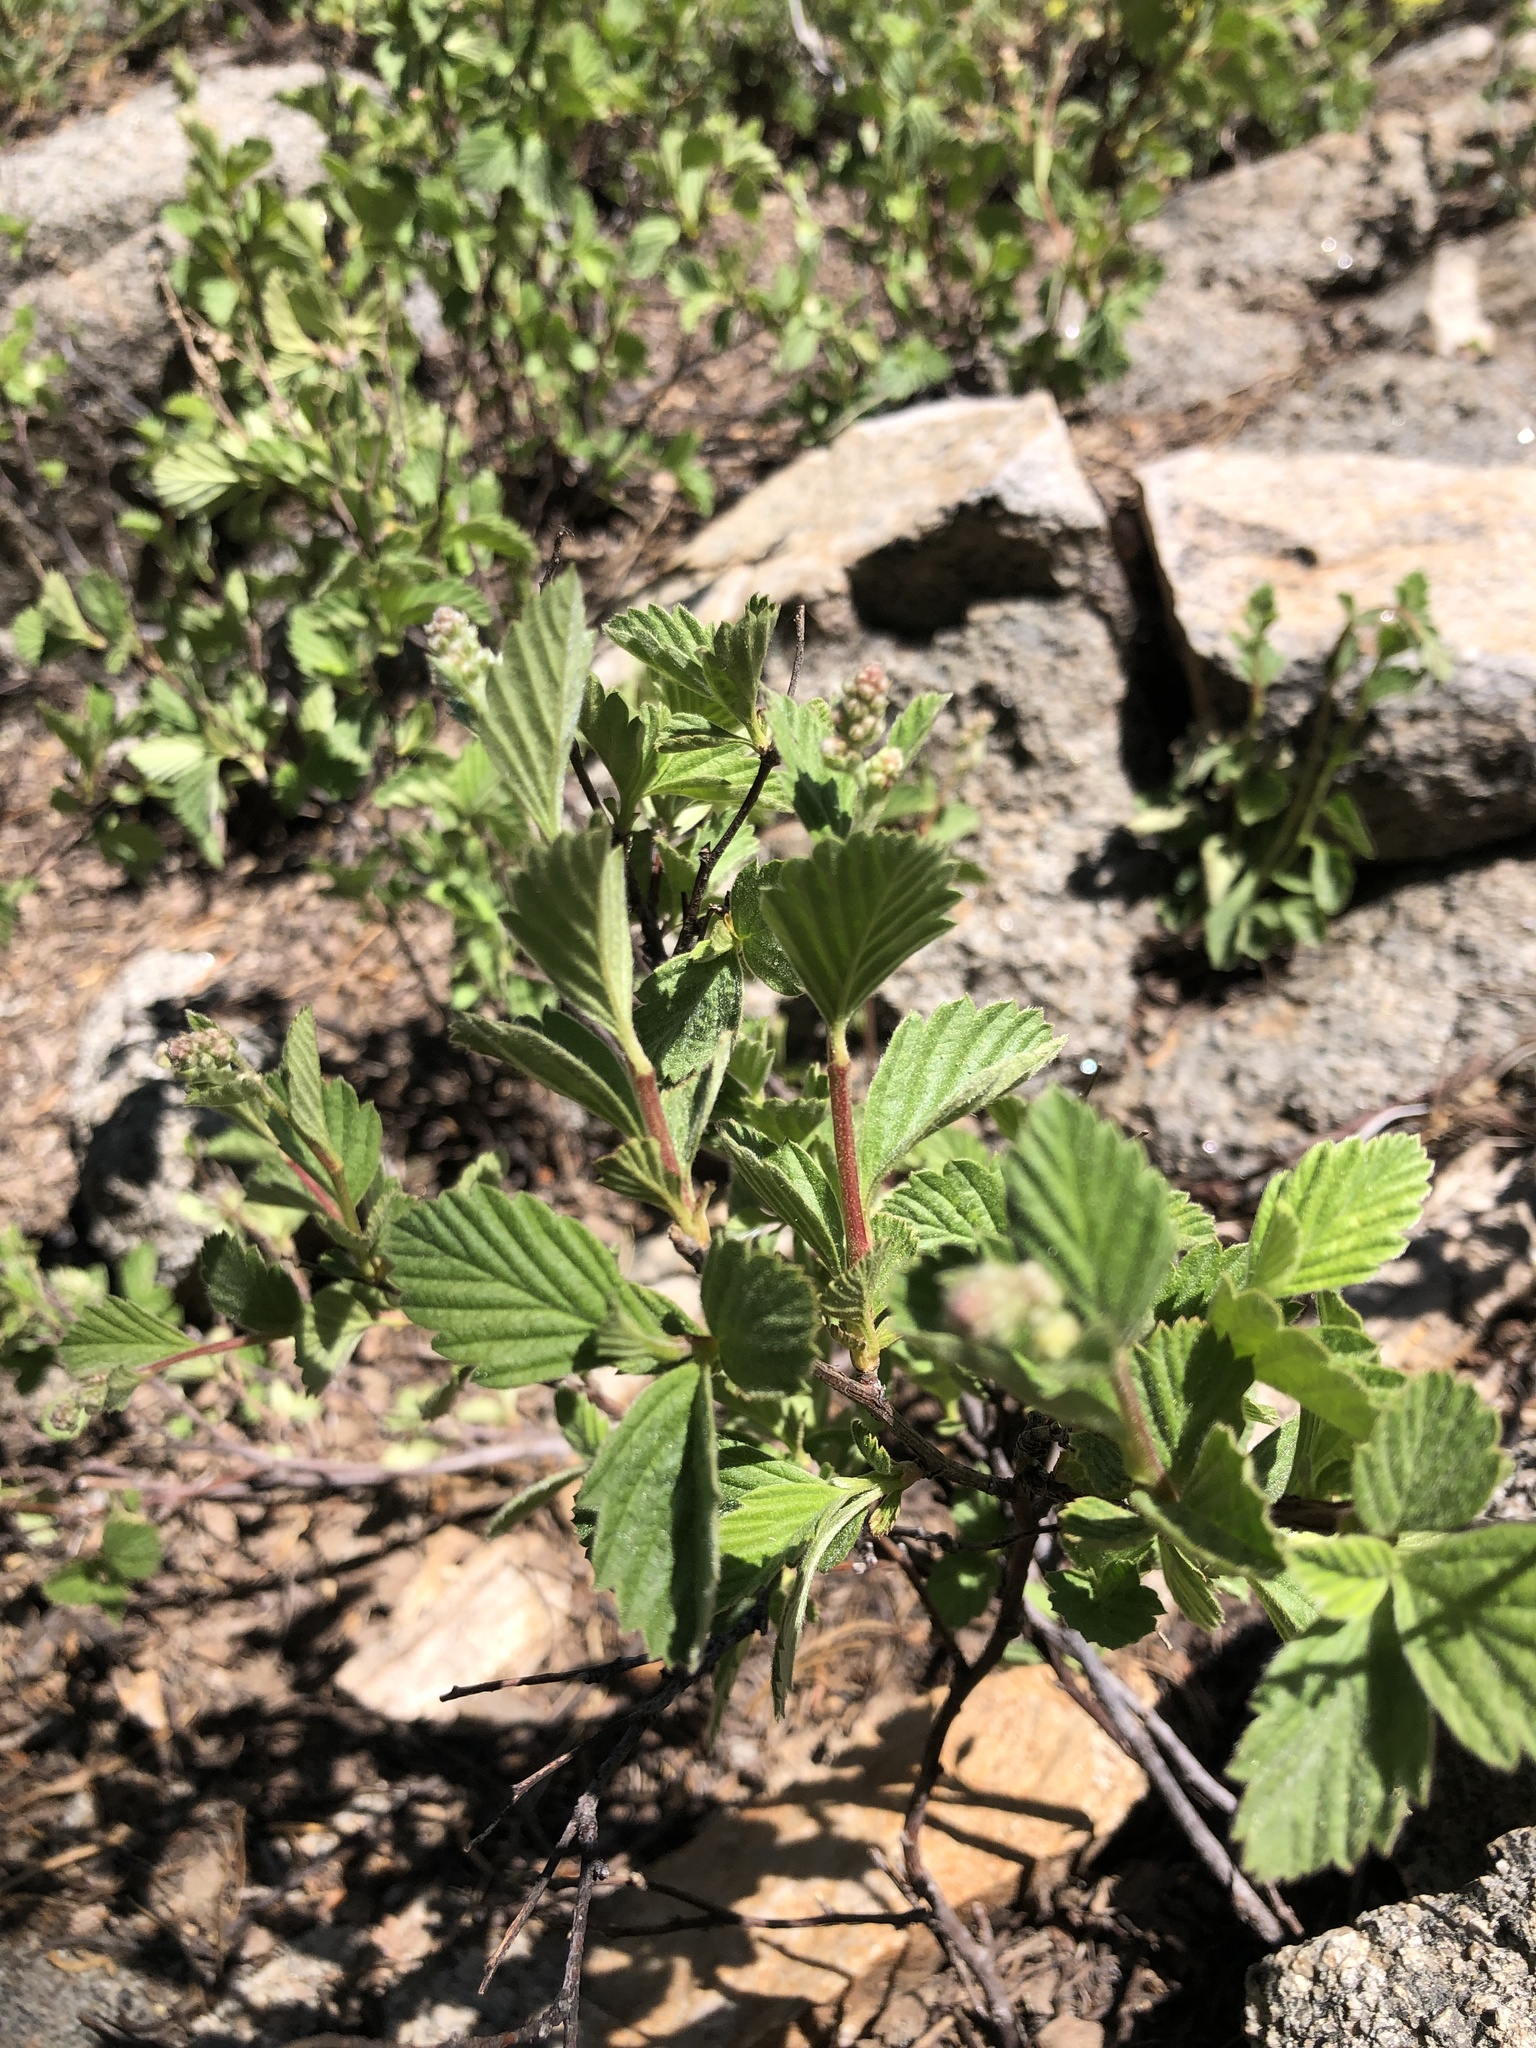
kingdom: Plantae
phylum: Tracheophyta
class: Magnoliopsida
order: Rosales
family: Rosaceae
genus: Holodiscus
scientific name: Holodiscus discolor
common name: Oceanspray
